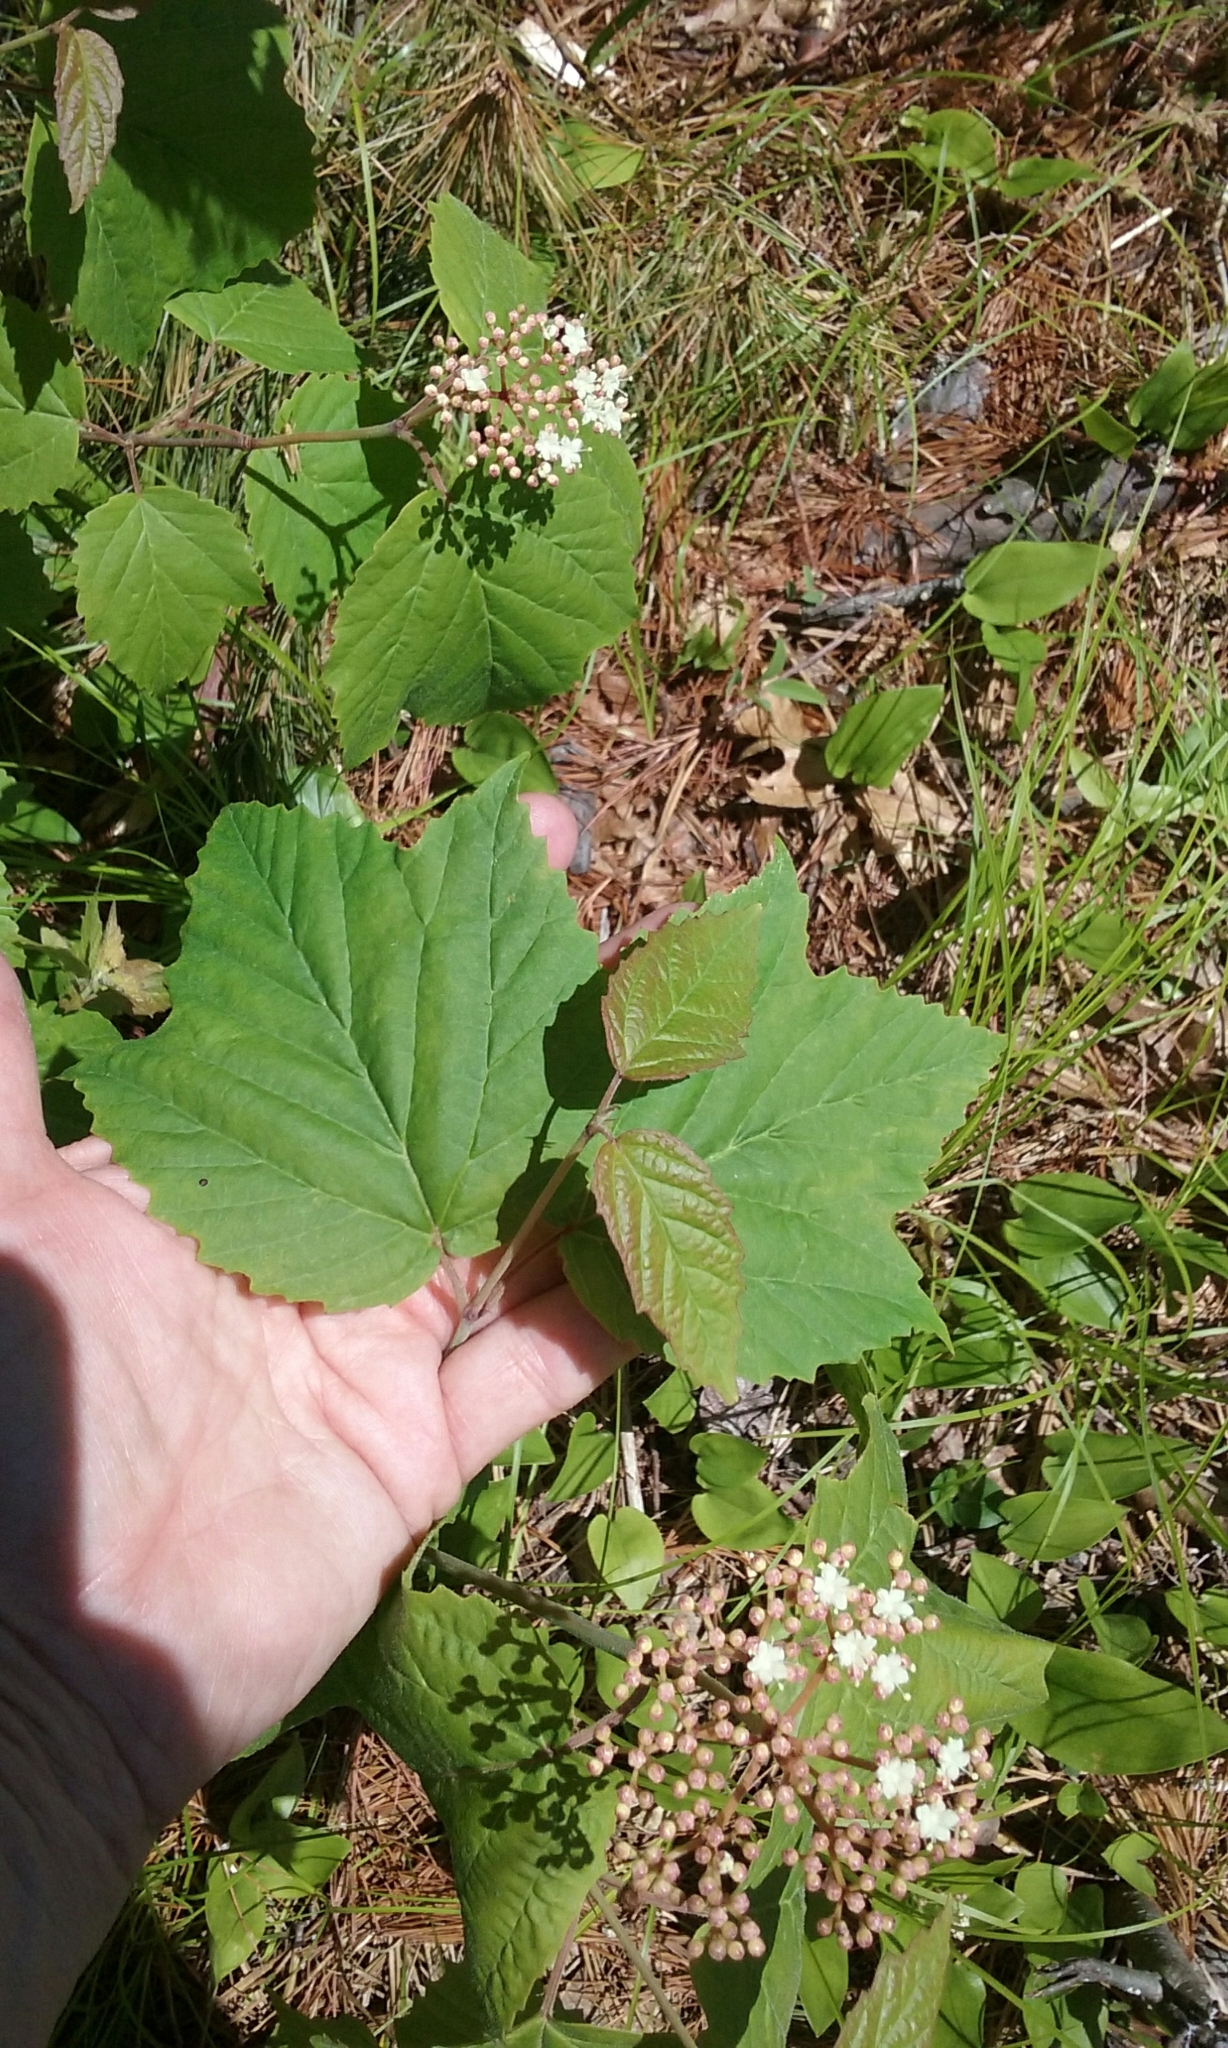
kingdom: Plantae
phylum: Tracheophyta
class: Magnoliopsida
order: Dipsacales
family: Viburnaceae
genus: Viburnum
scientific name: Viburnum acerifolium
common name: Dockmackie
